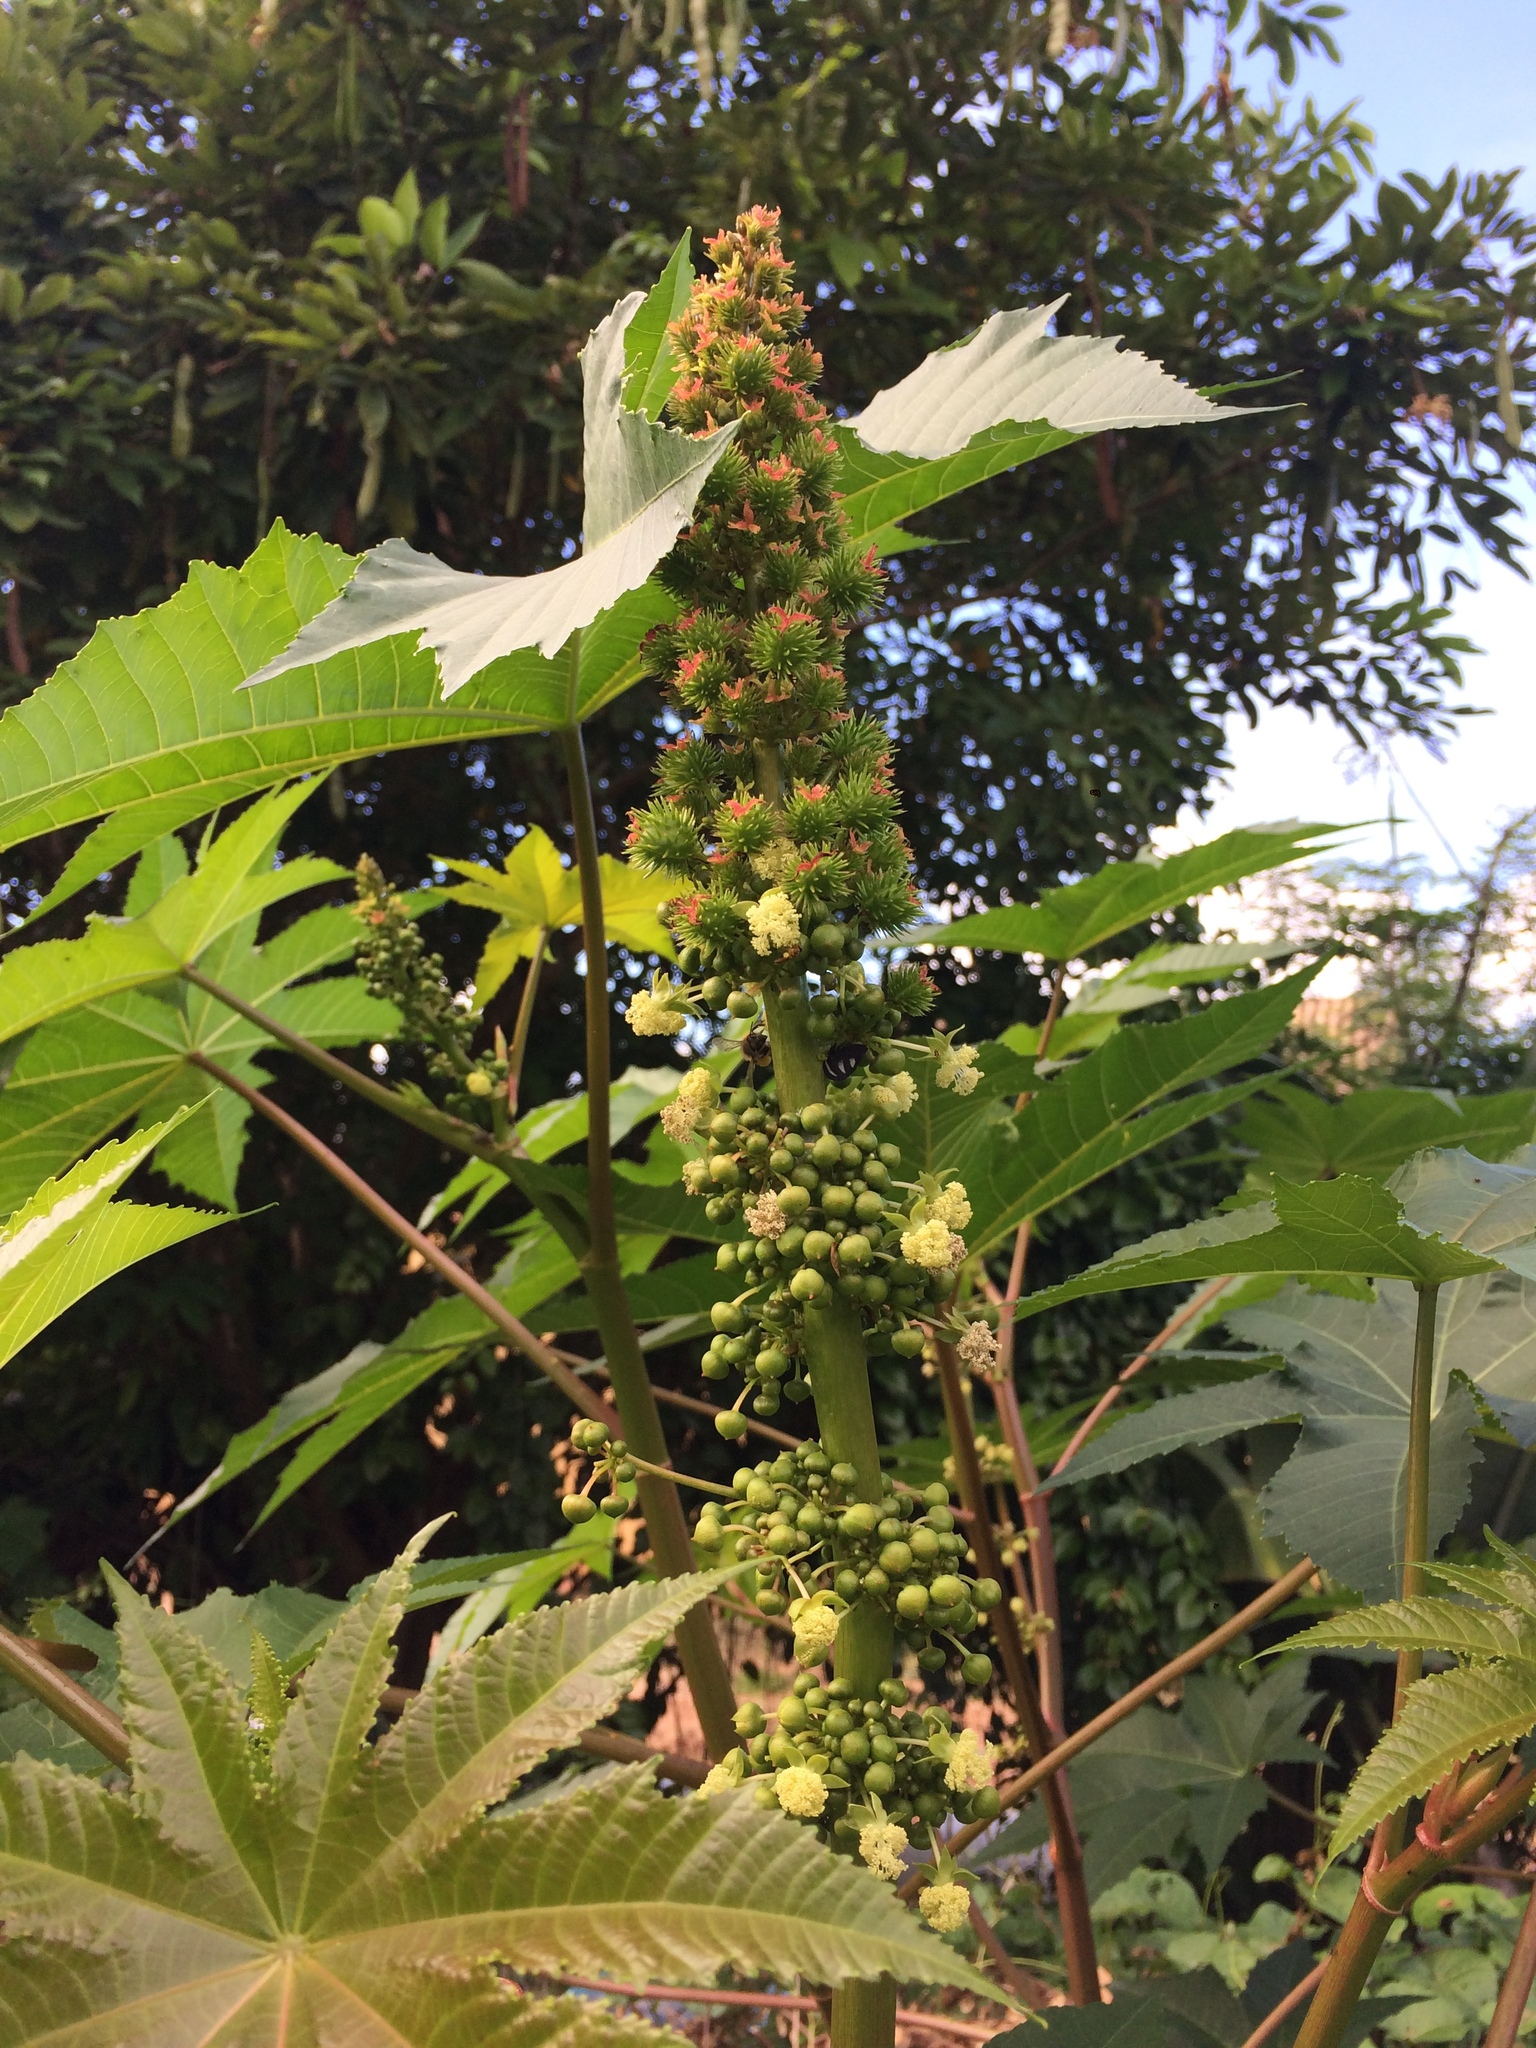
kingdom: Plantae
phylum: Tracheophyta
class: Magnoliopsida
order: Malpighiales
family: Euphorbiaceae
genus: Ricinus
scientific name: Ricinus communis
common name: Castor-oil-plant
